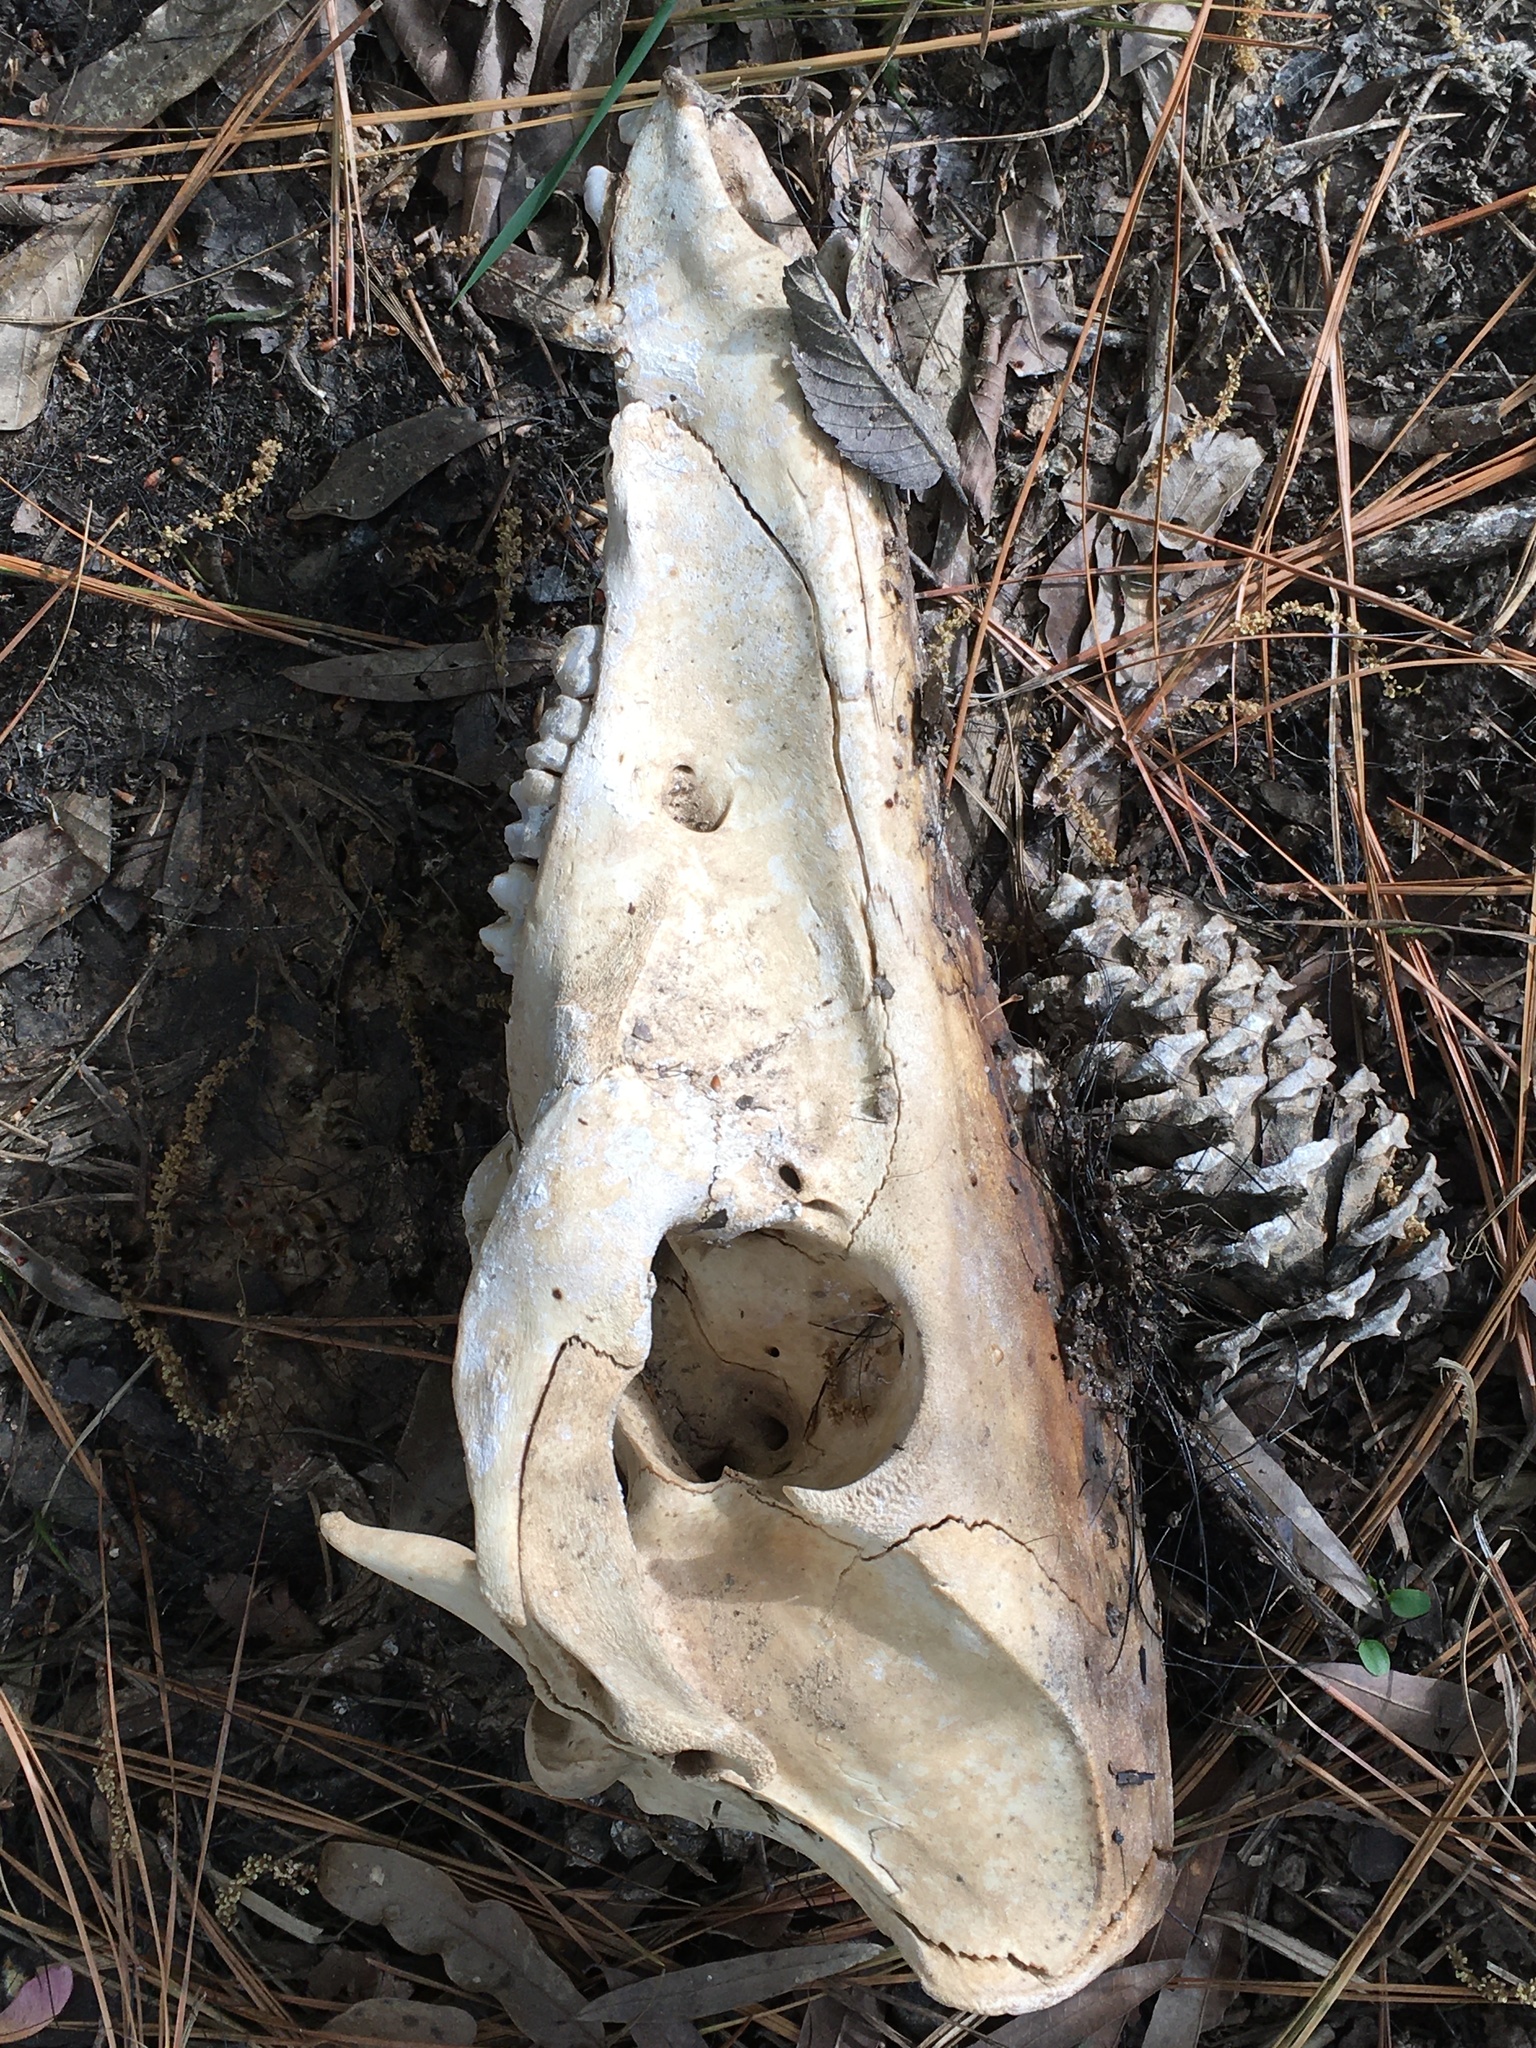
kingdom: Animalia
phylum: Chordata
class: Mammalia
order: Artiodactyla
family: Suidae
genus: Sus
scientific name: Sus scrofa
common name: Wild boar
